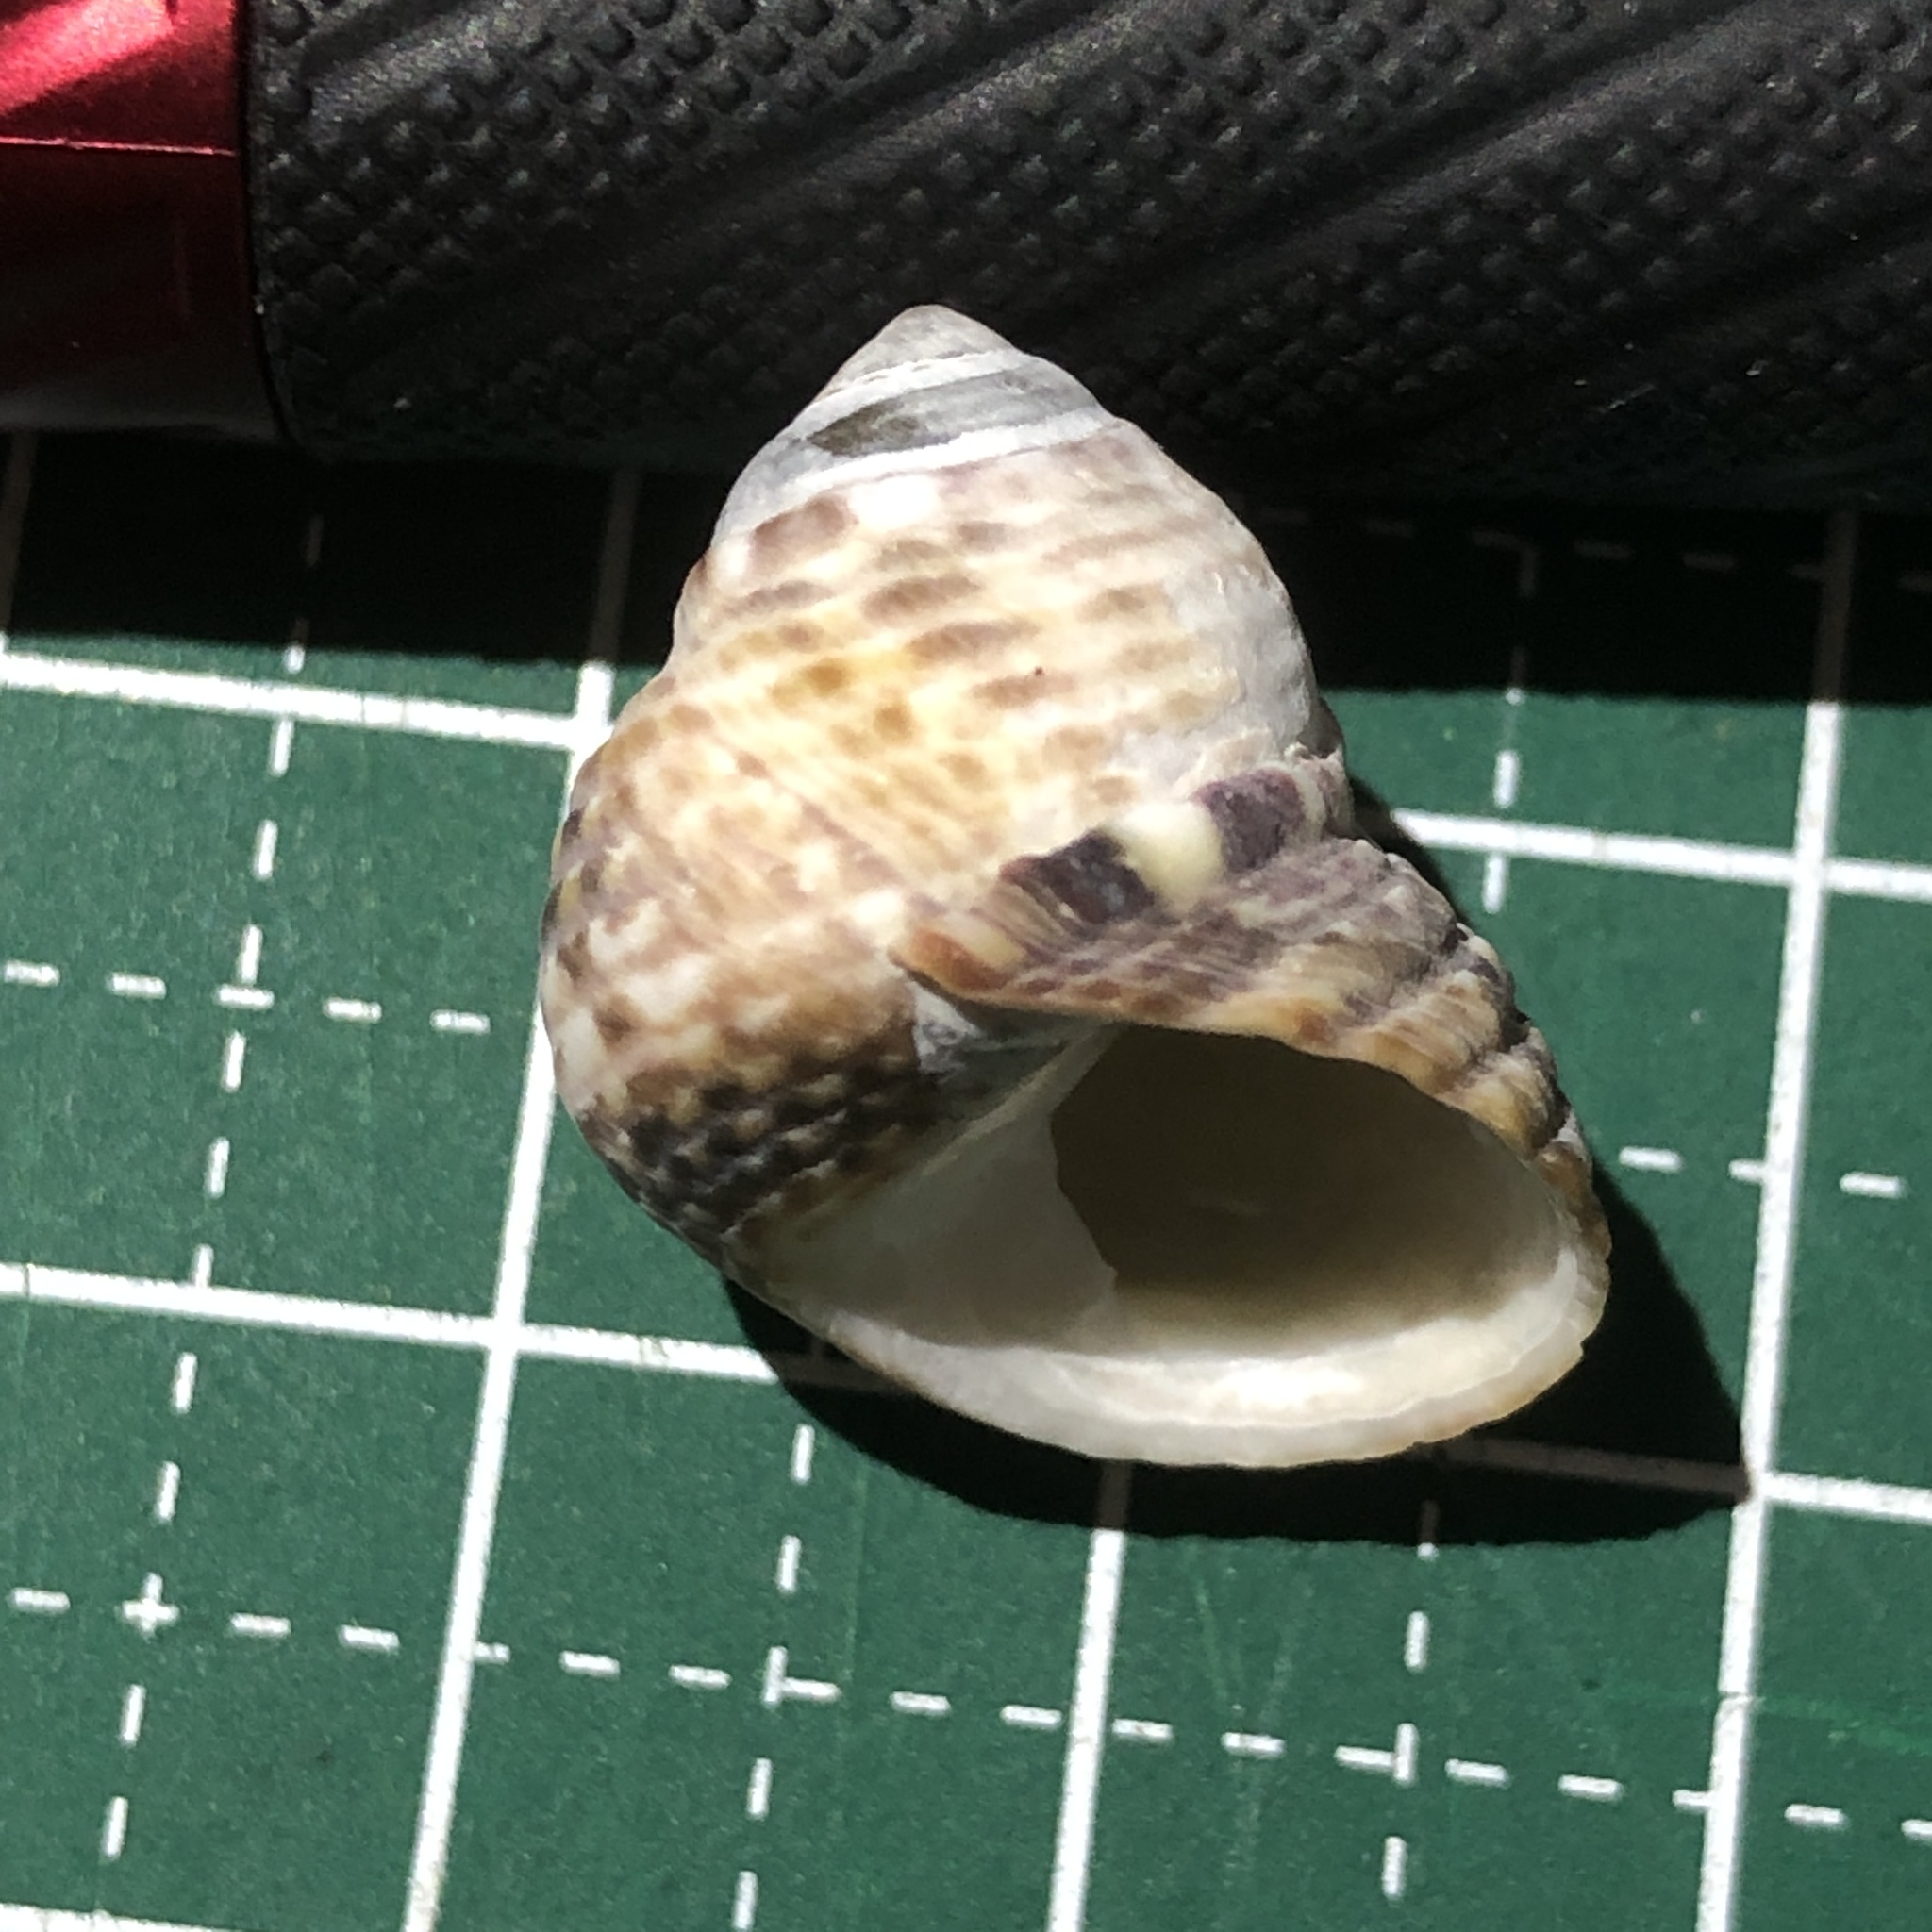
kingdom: Animalia
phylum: Mollusca
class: Gastropoda
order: Trochida
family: Trochidae
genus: Monodonta
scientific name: Monodonta canalifera
